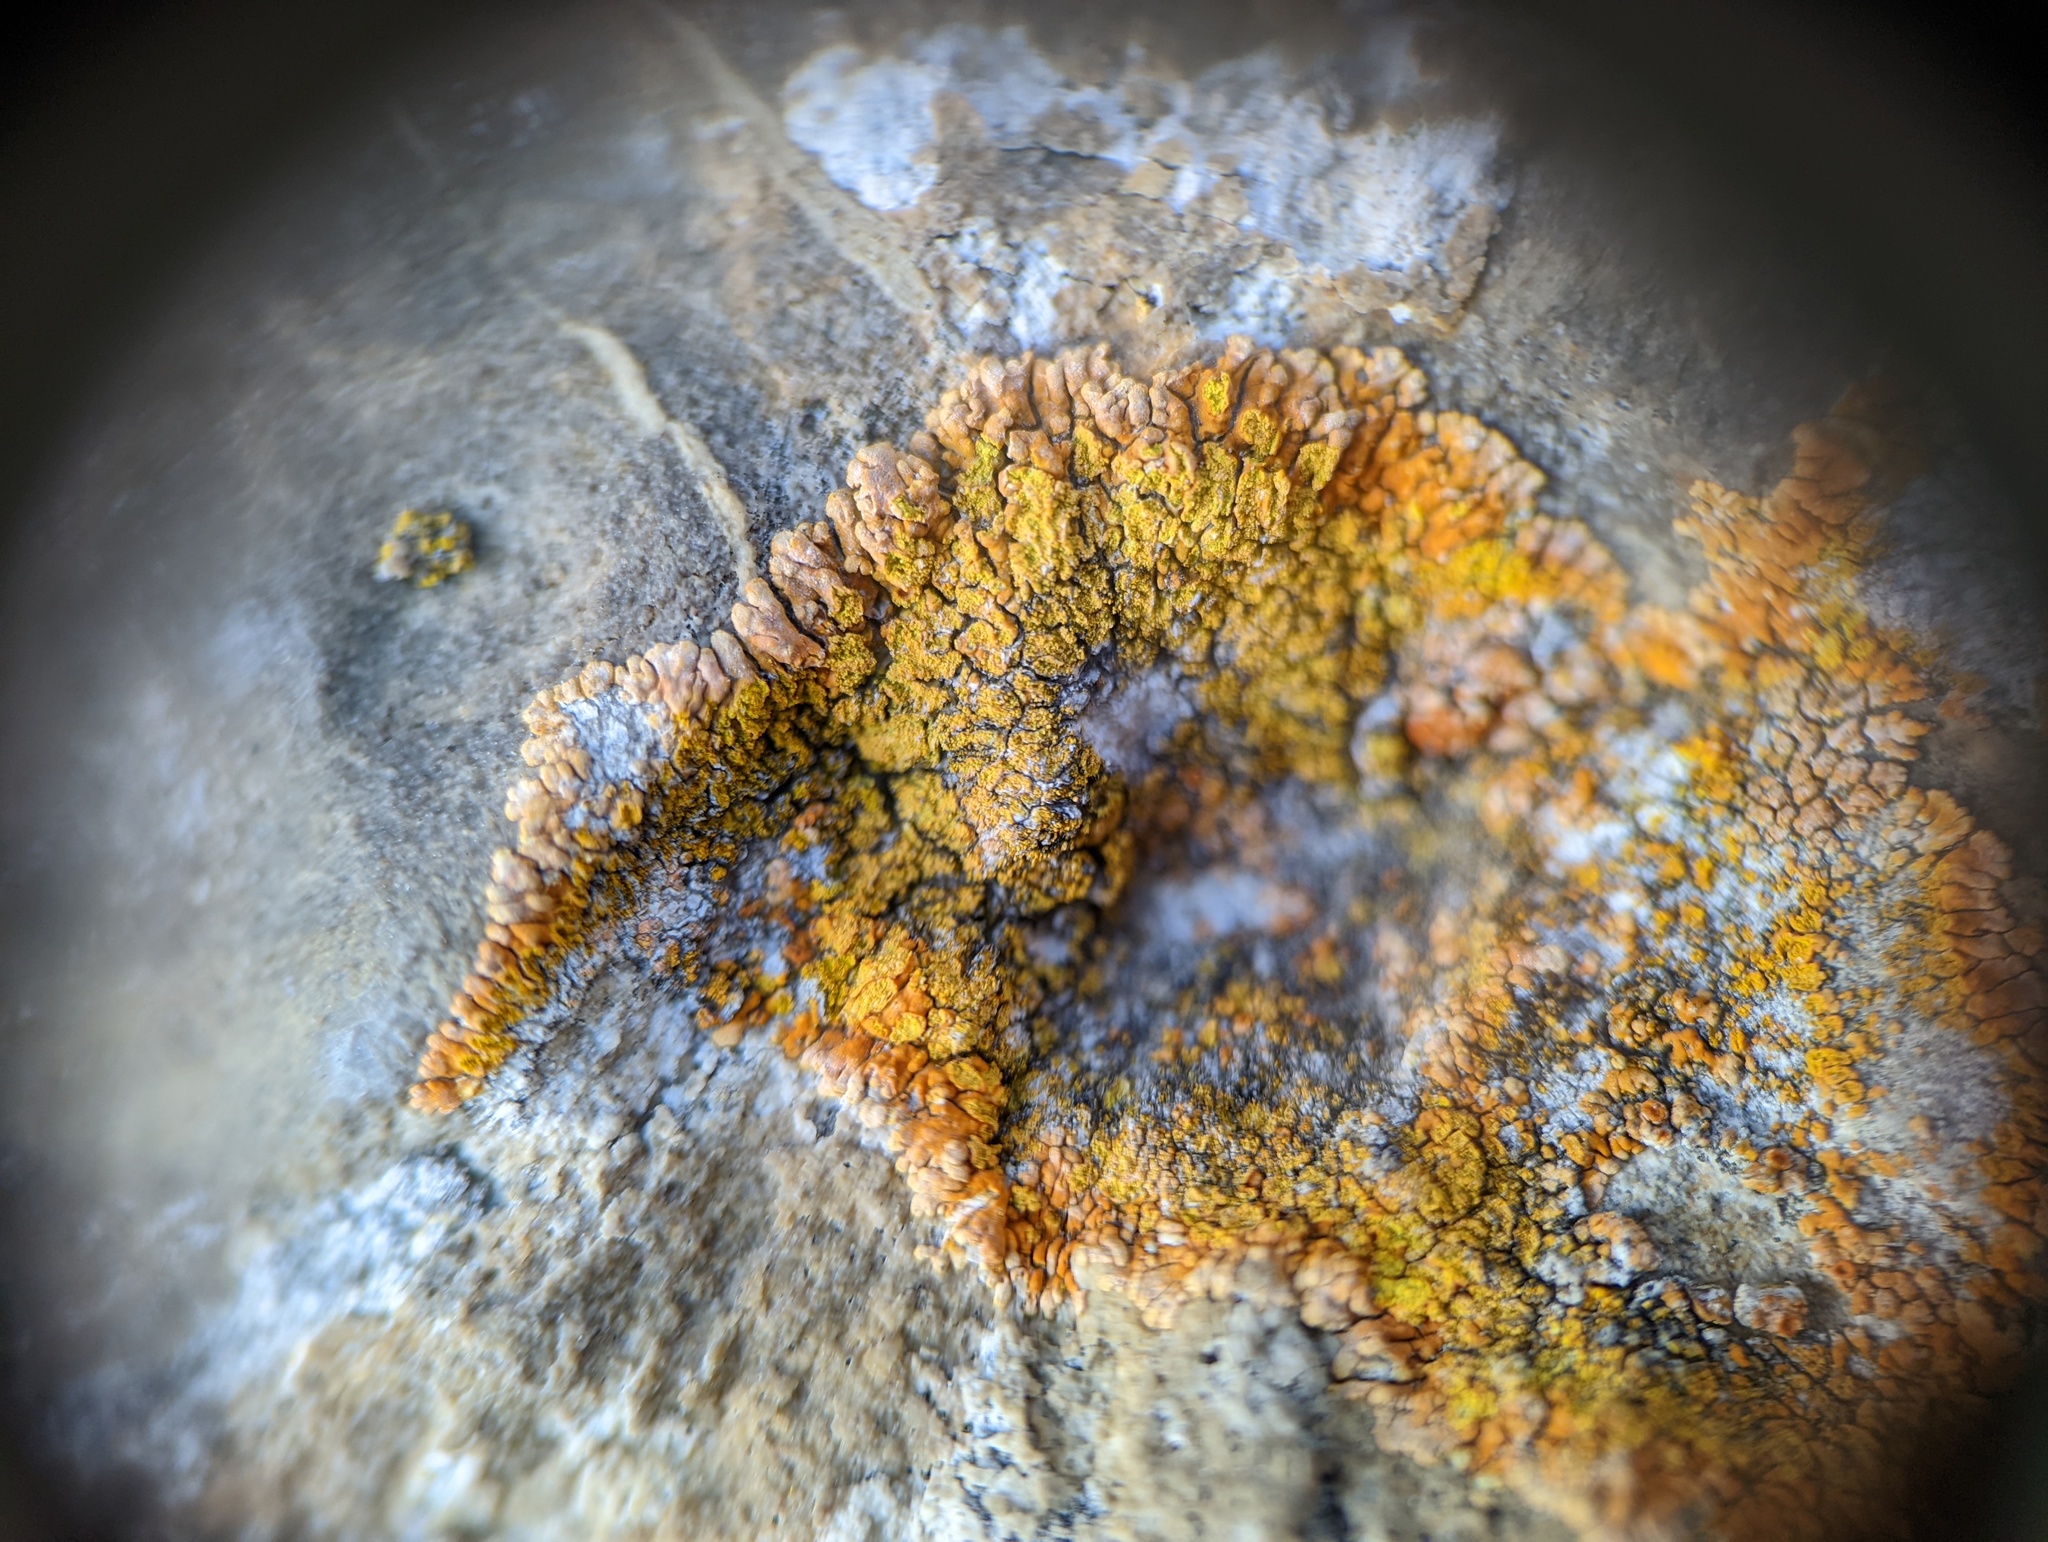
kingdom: Fungi
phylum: Ascomycota
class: Lecanoromycetes
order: Teloschistales
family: Teloschistaceae
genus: Leproplaca
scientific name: Leproplaca cirrochroa
